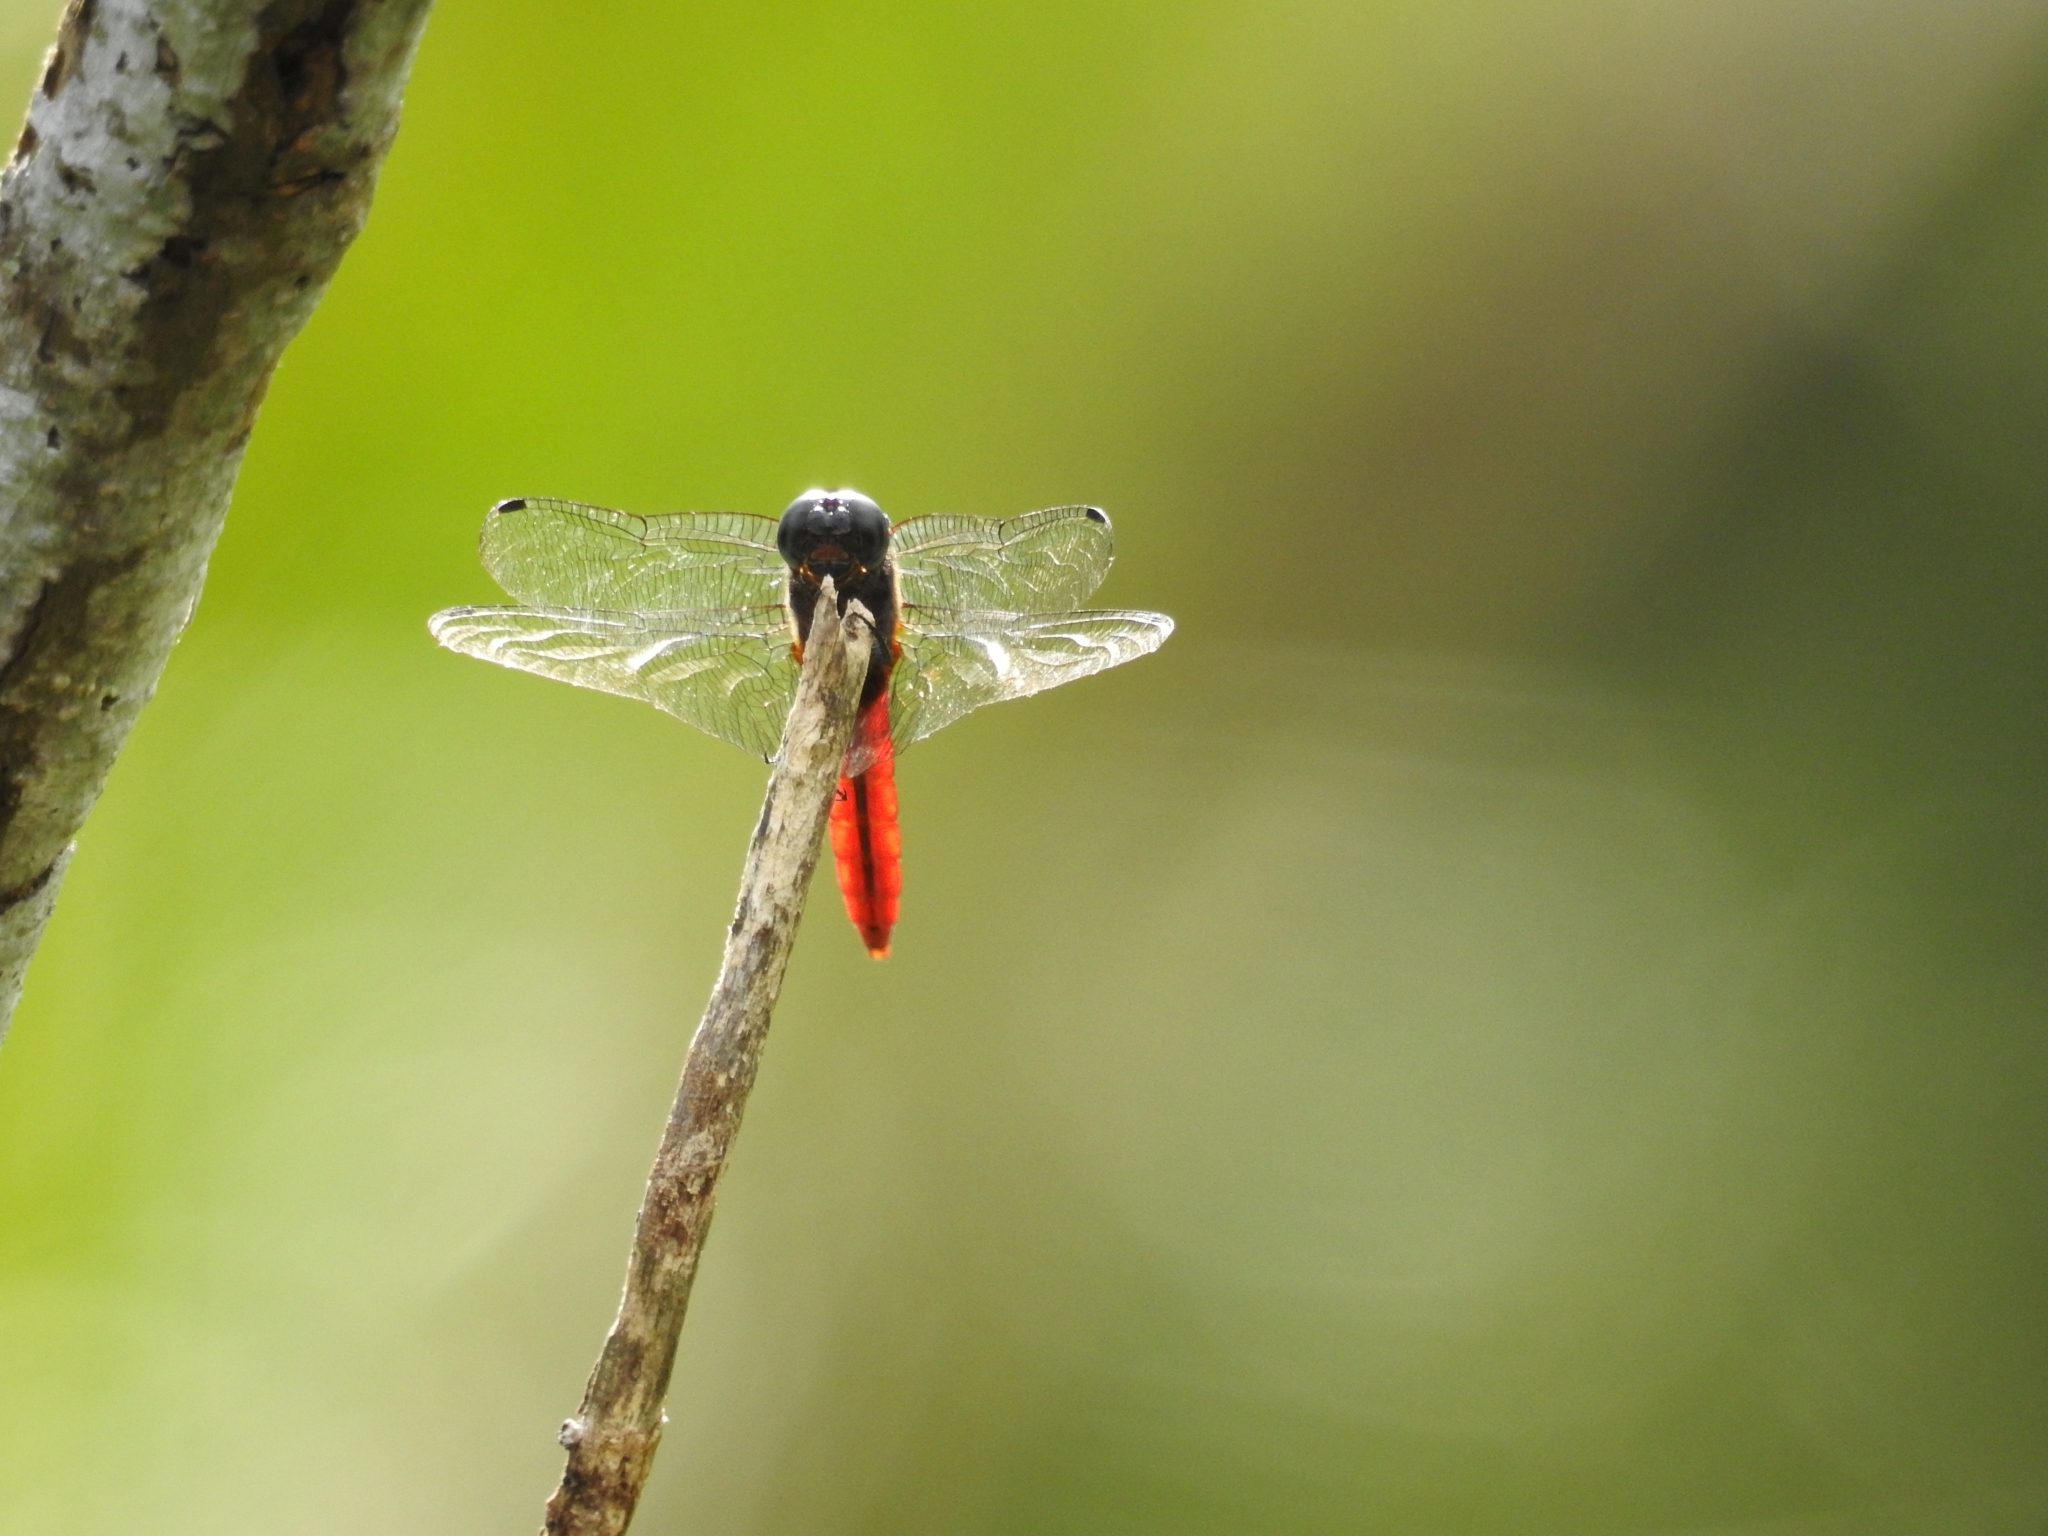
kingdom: Animalia
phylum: Arthropoda
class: Insecta
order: Odonata
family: Libellulidae
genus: Aethriamanta
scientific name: Aethriamanta brevipennis
